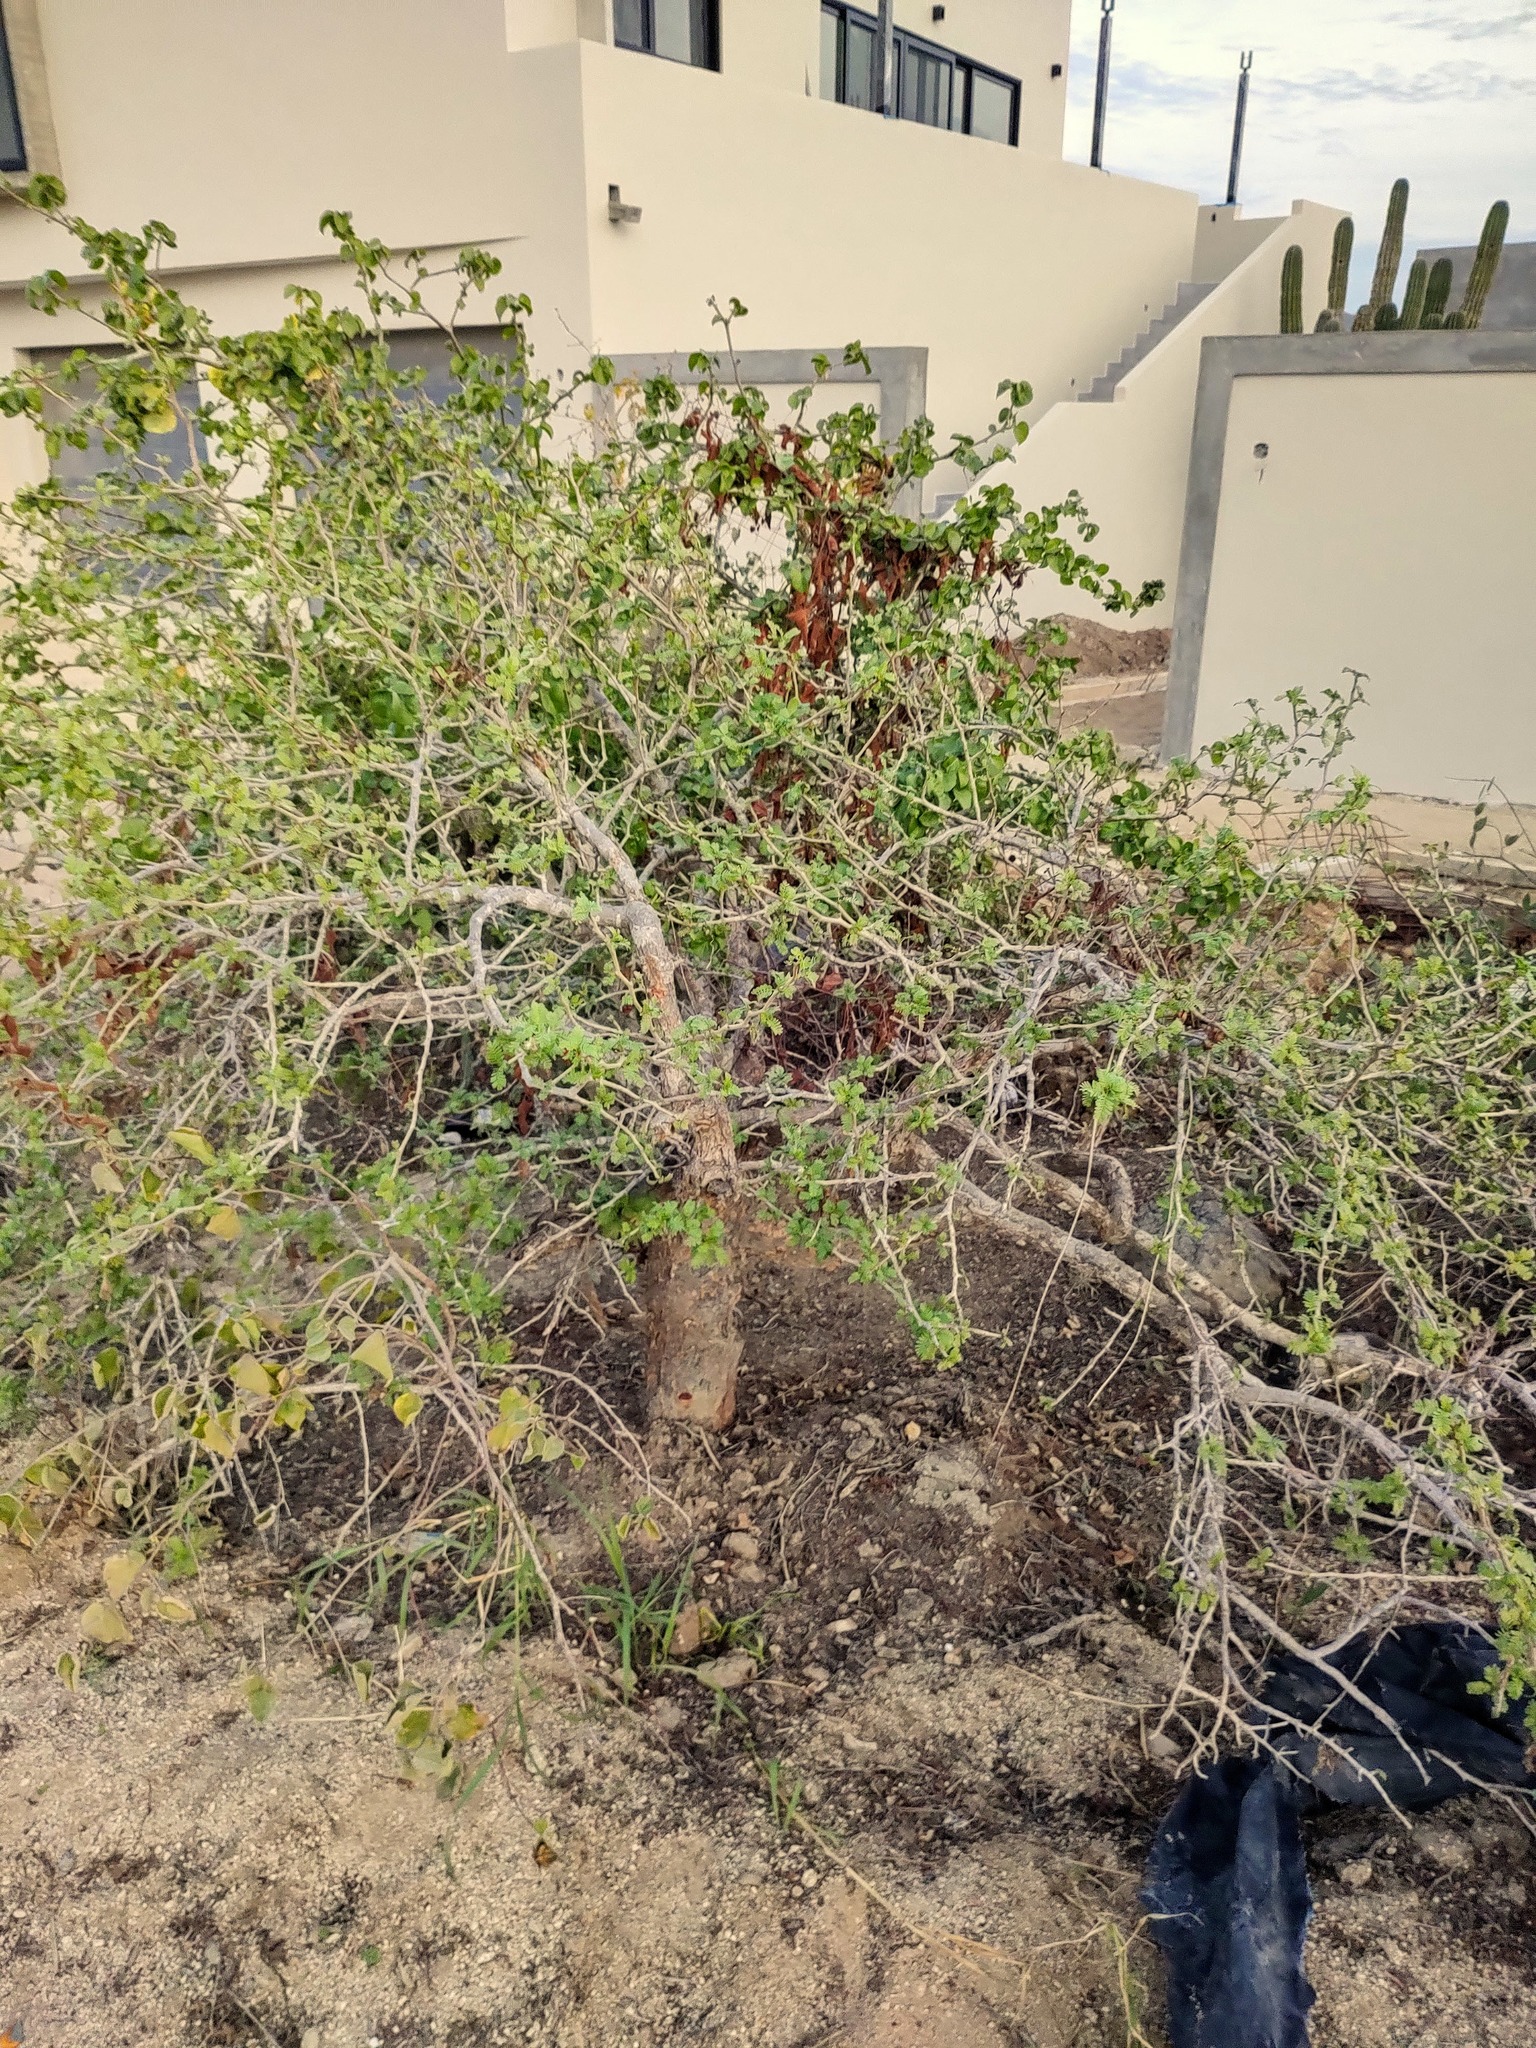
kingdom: Plantae
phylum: Tracheophyta
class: Magnoliopsida
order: Sapindales
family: Burseraceae
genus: Bursera
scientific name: Bursera microphylla
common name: Elephant tree
